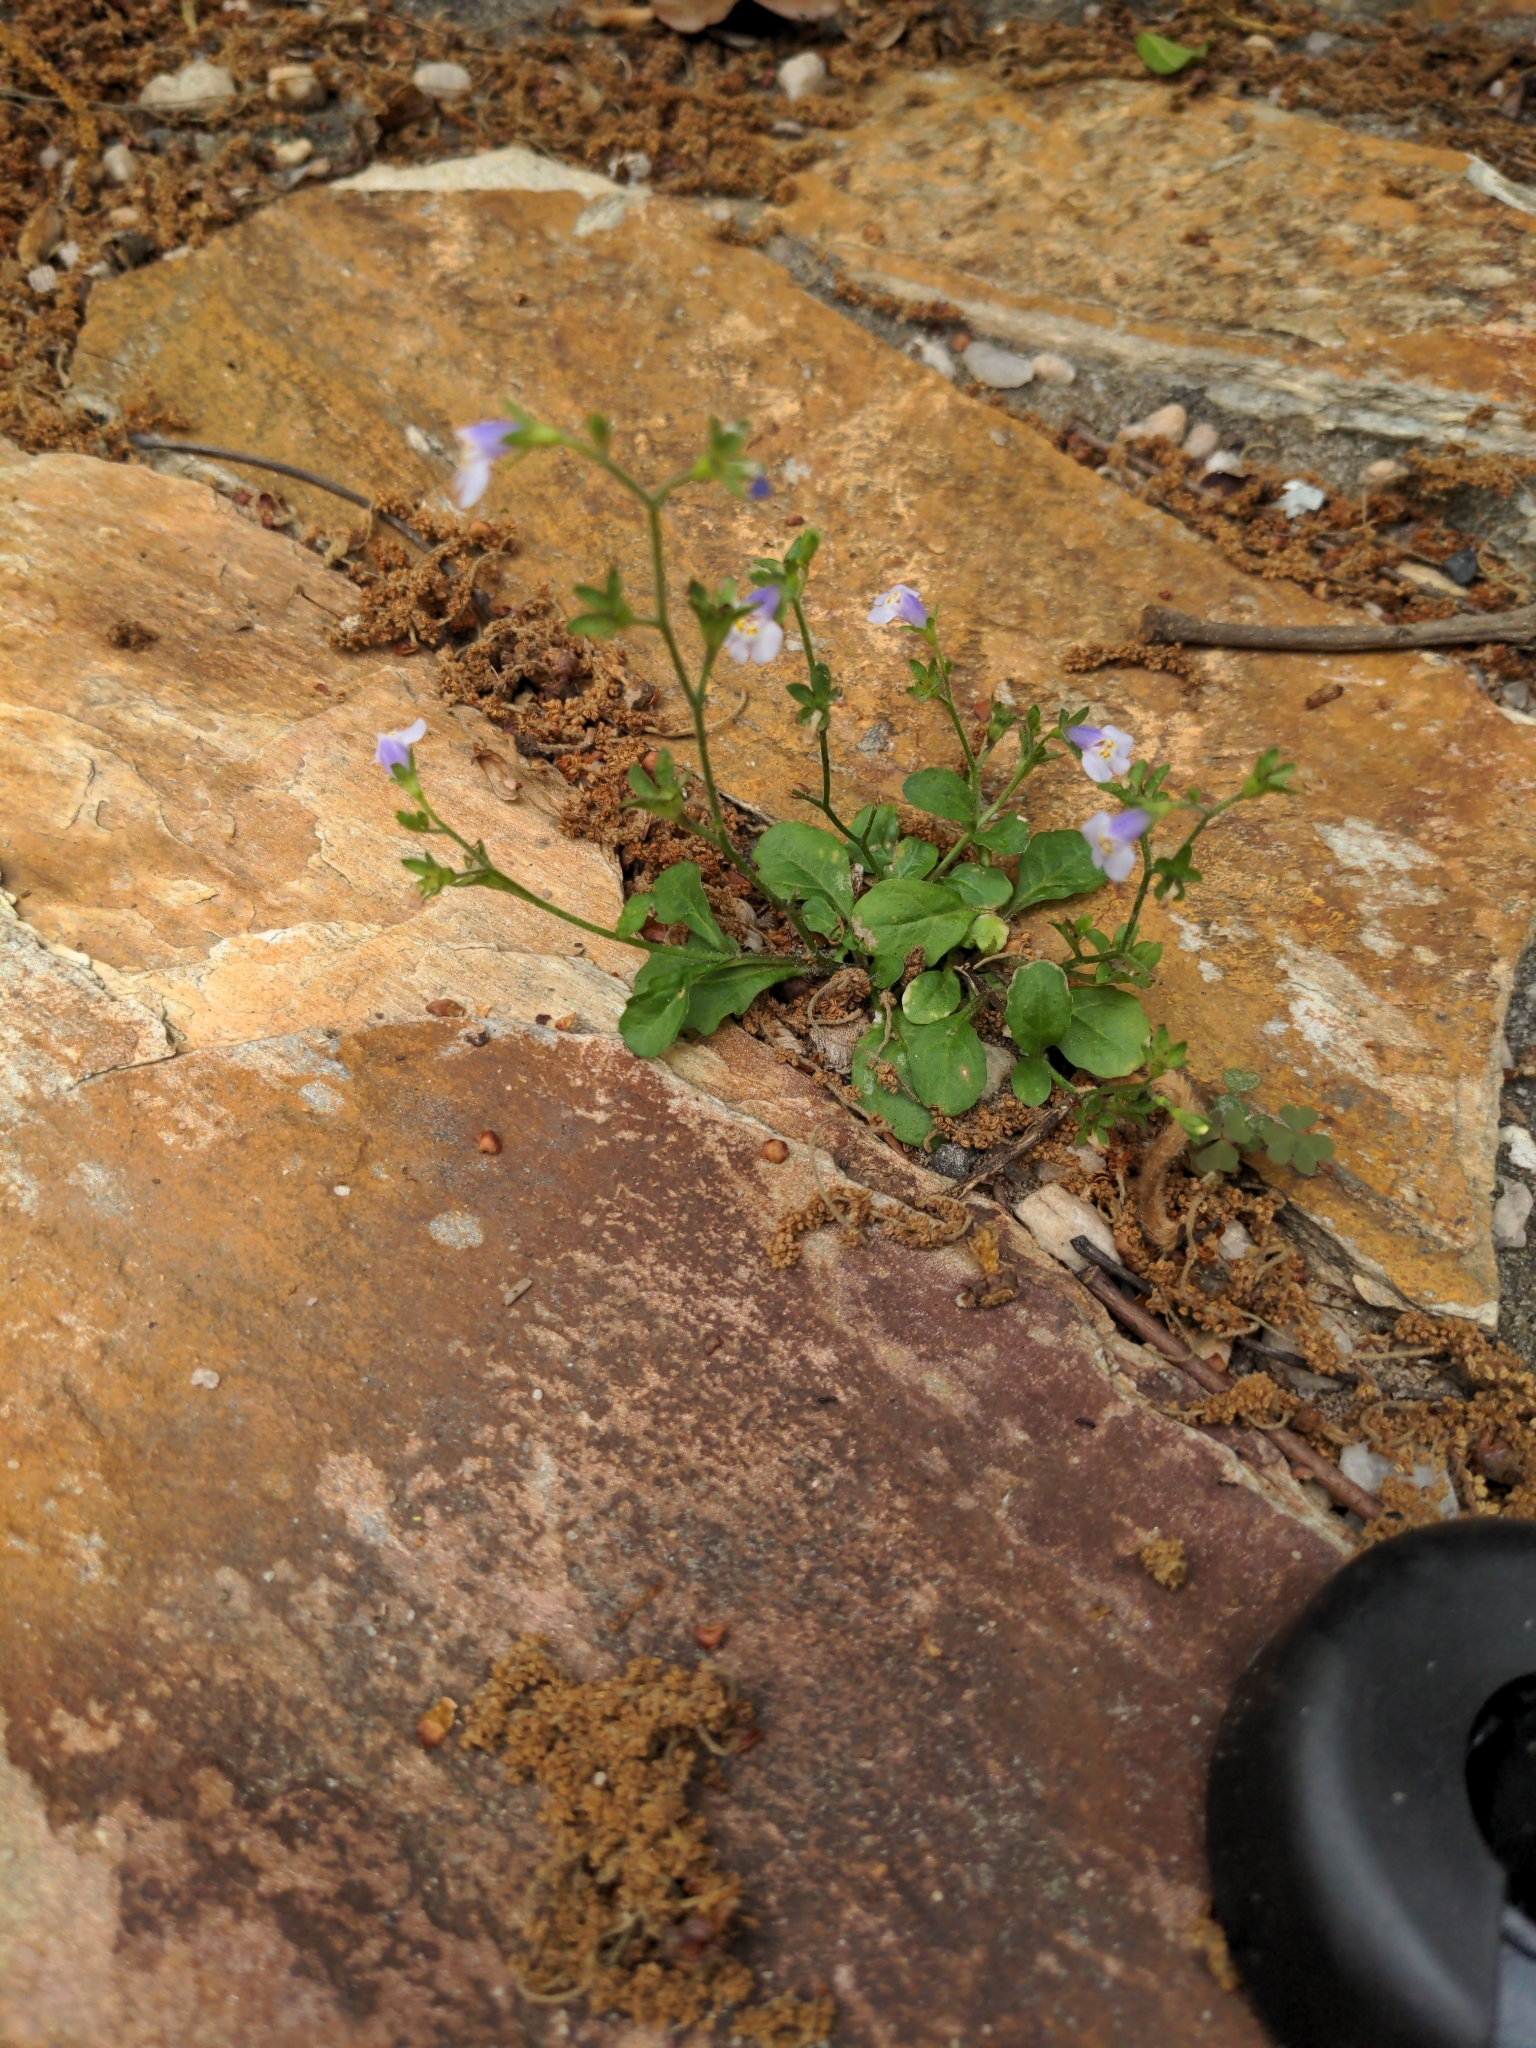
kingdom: Plantae
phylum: Tracheophyta
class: Magnoliopsida
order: Lamiales
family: Mazaceae
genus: Mazus
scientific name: Mazus pumilus
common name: Japanese mazus
